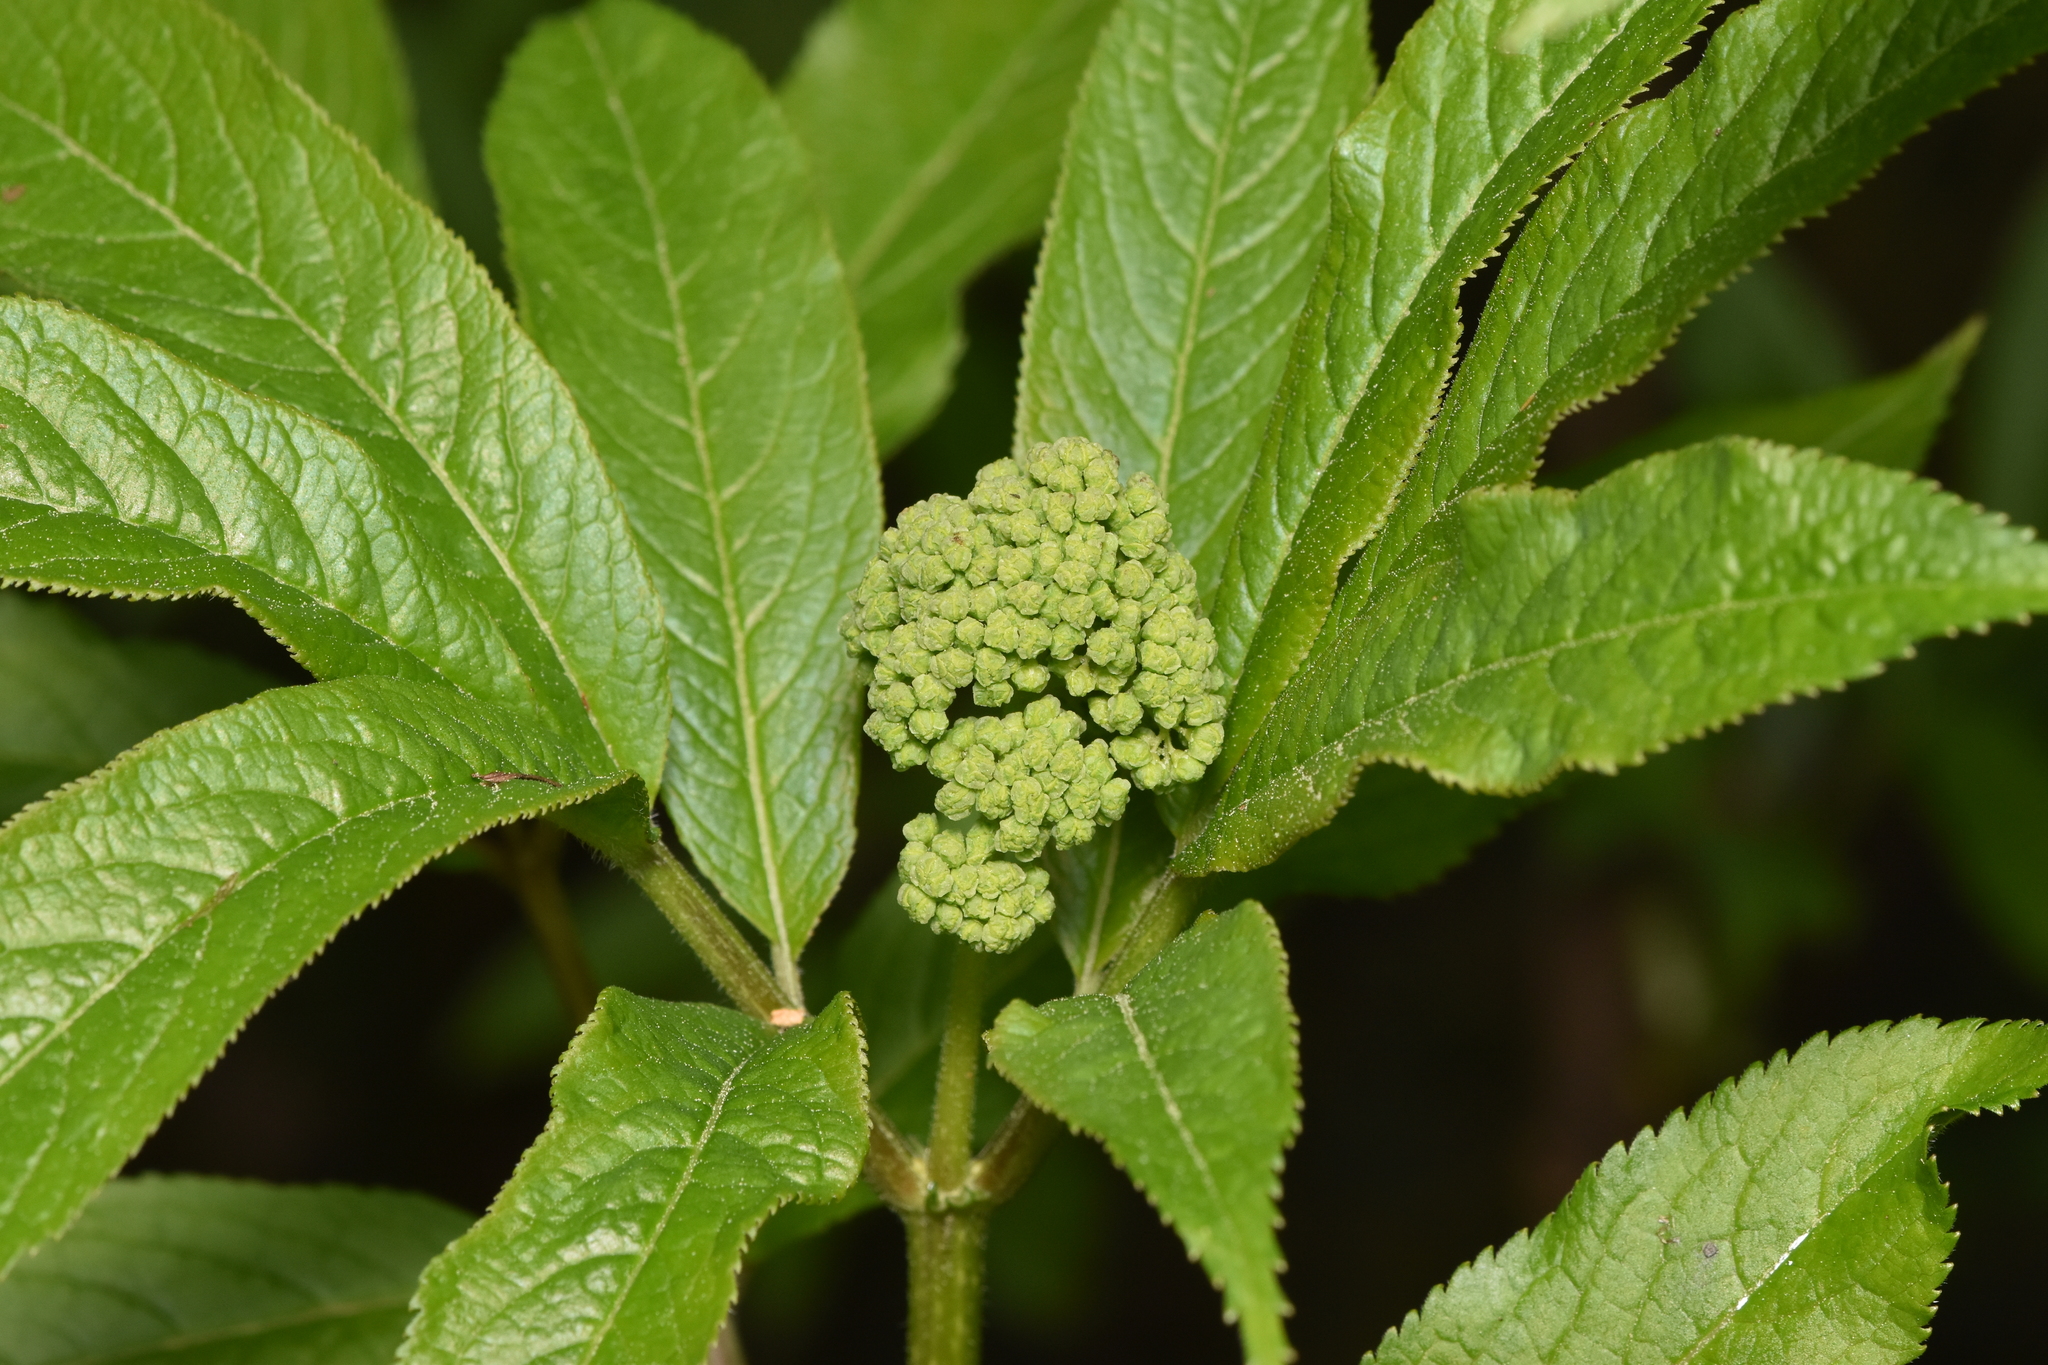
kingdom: Plantae
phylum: Tracheophyta
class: Magnoliopsida
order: Dipsacales
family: Viburnaceae
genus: Sambucus
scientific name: Sambucus racemosa
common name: Red-berried elder
